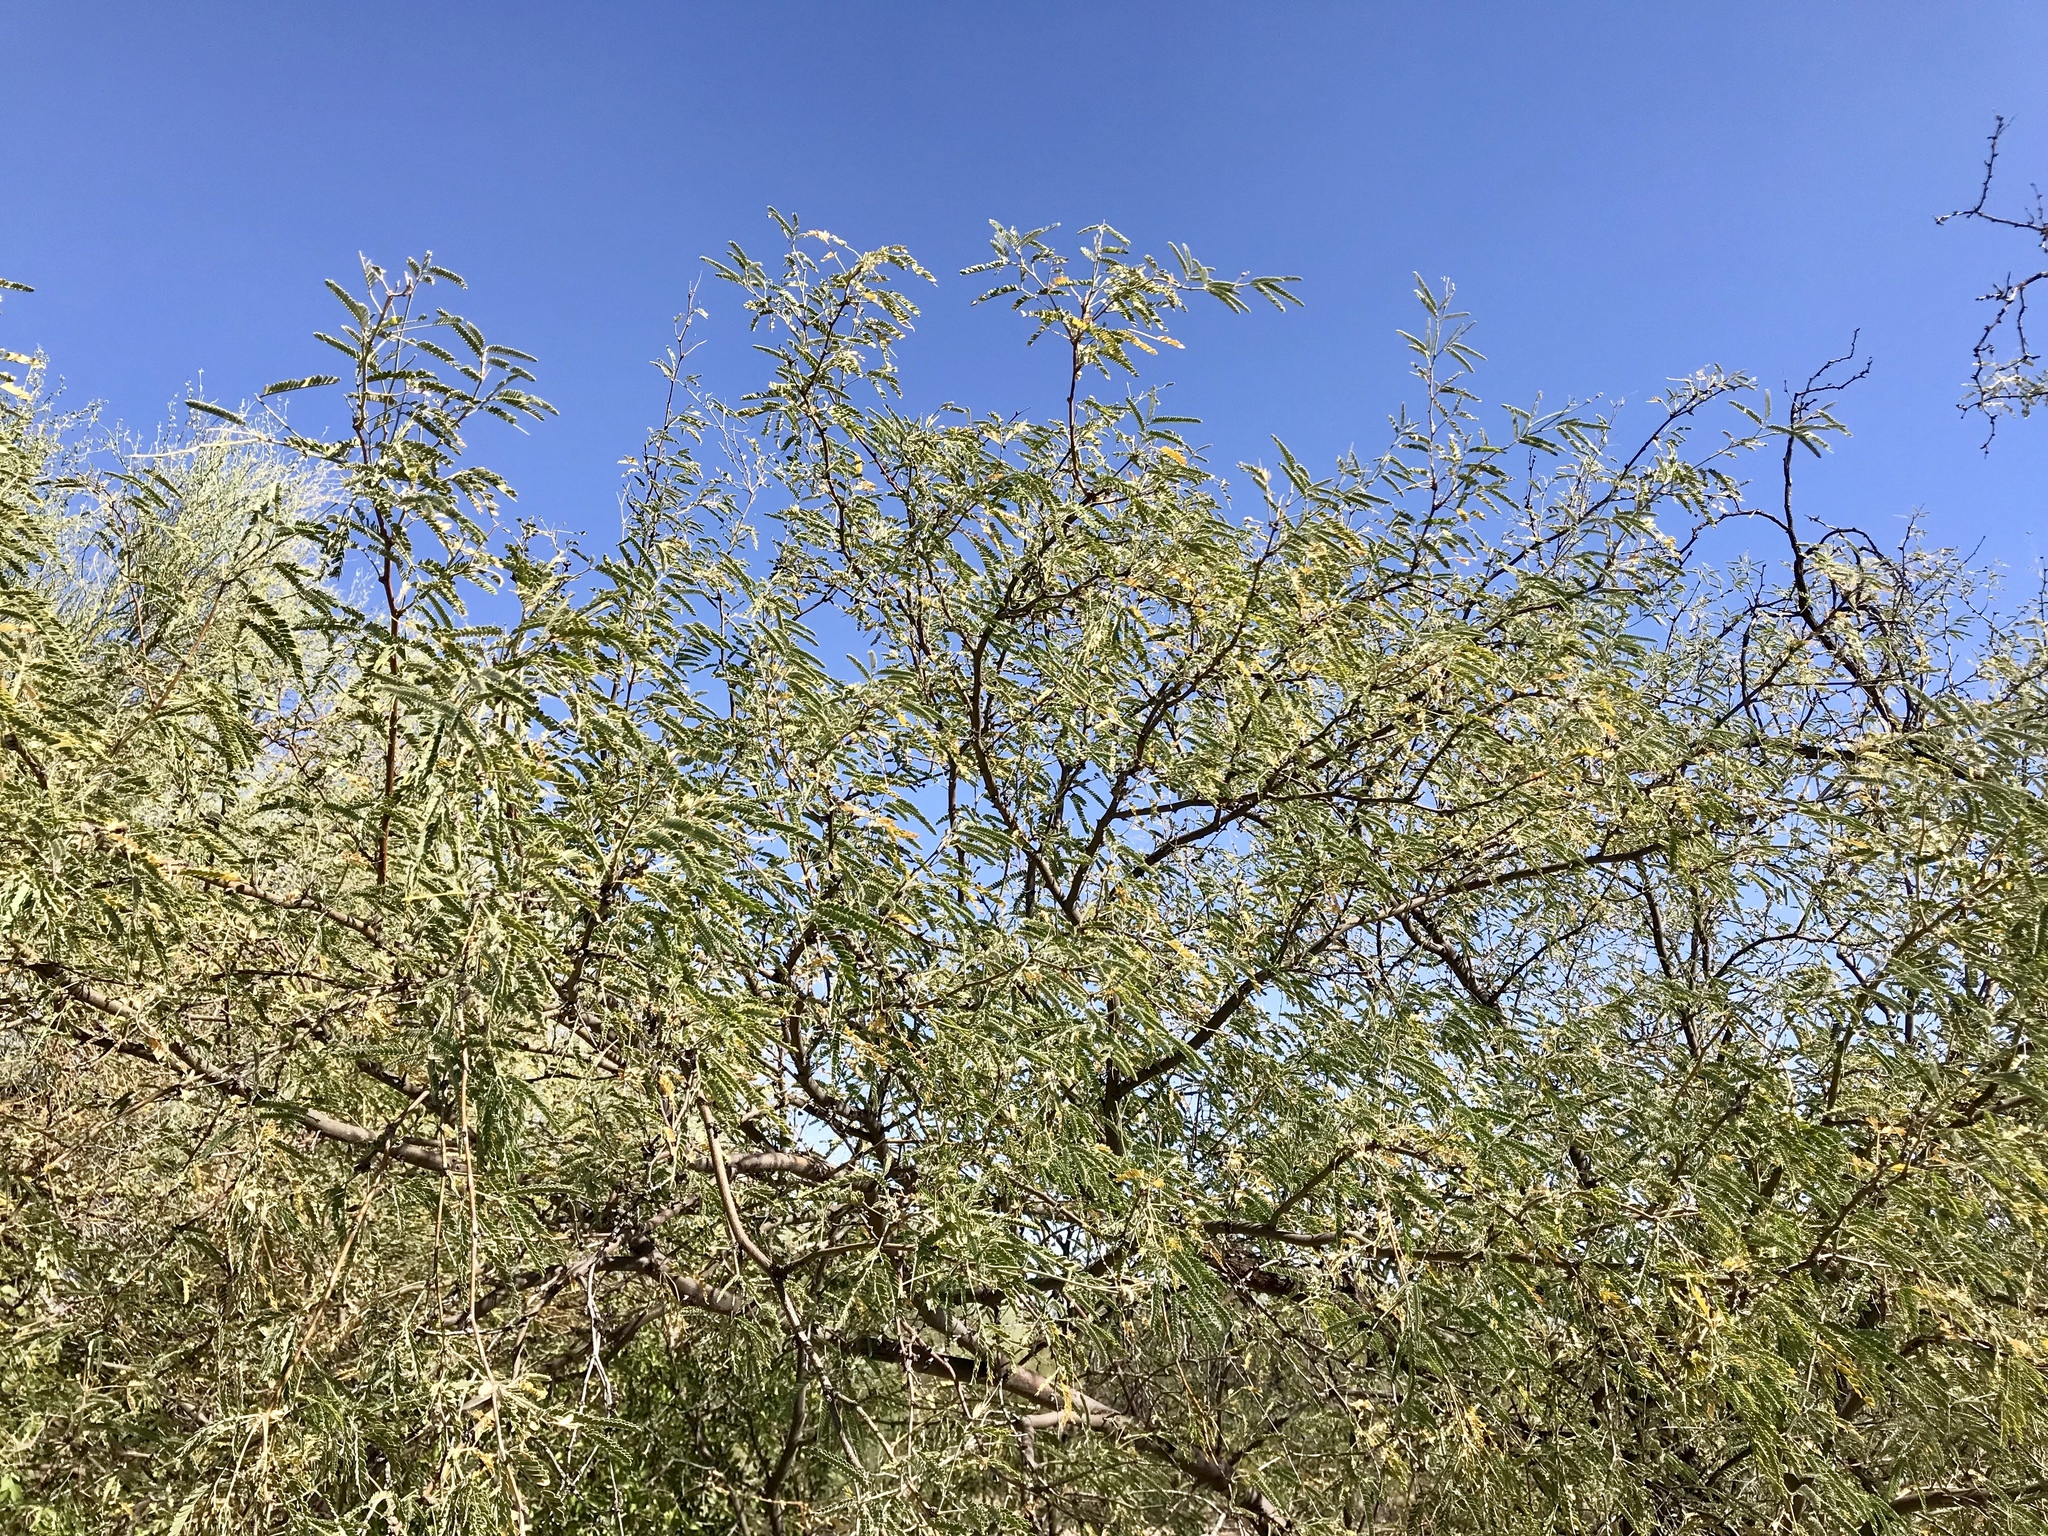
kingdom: Plantae
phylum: Tracheophyta
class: Magnoliopsida
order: Fabales
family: Fabaceae
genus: Prosopis
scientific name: Prosopis velutina
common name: Velvet mesquite
